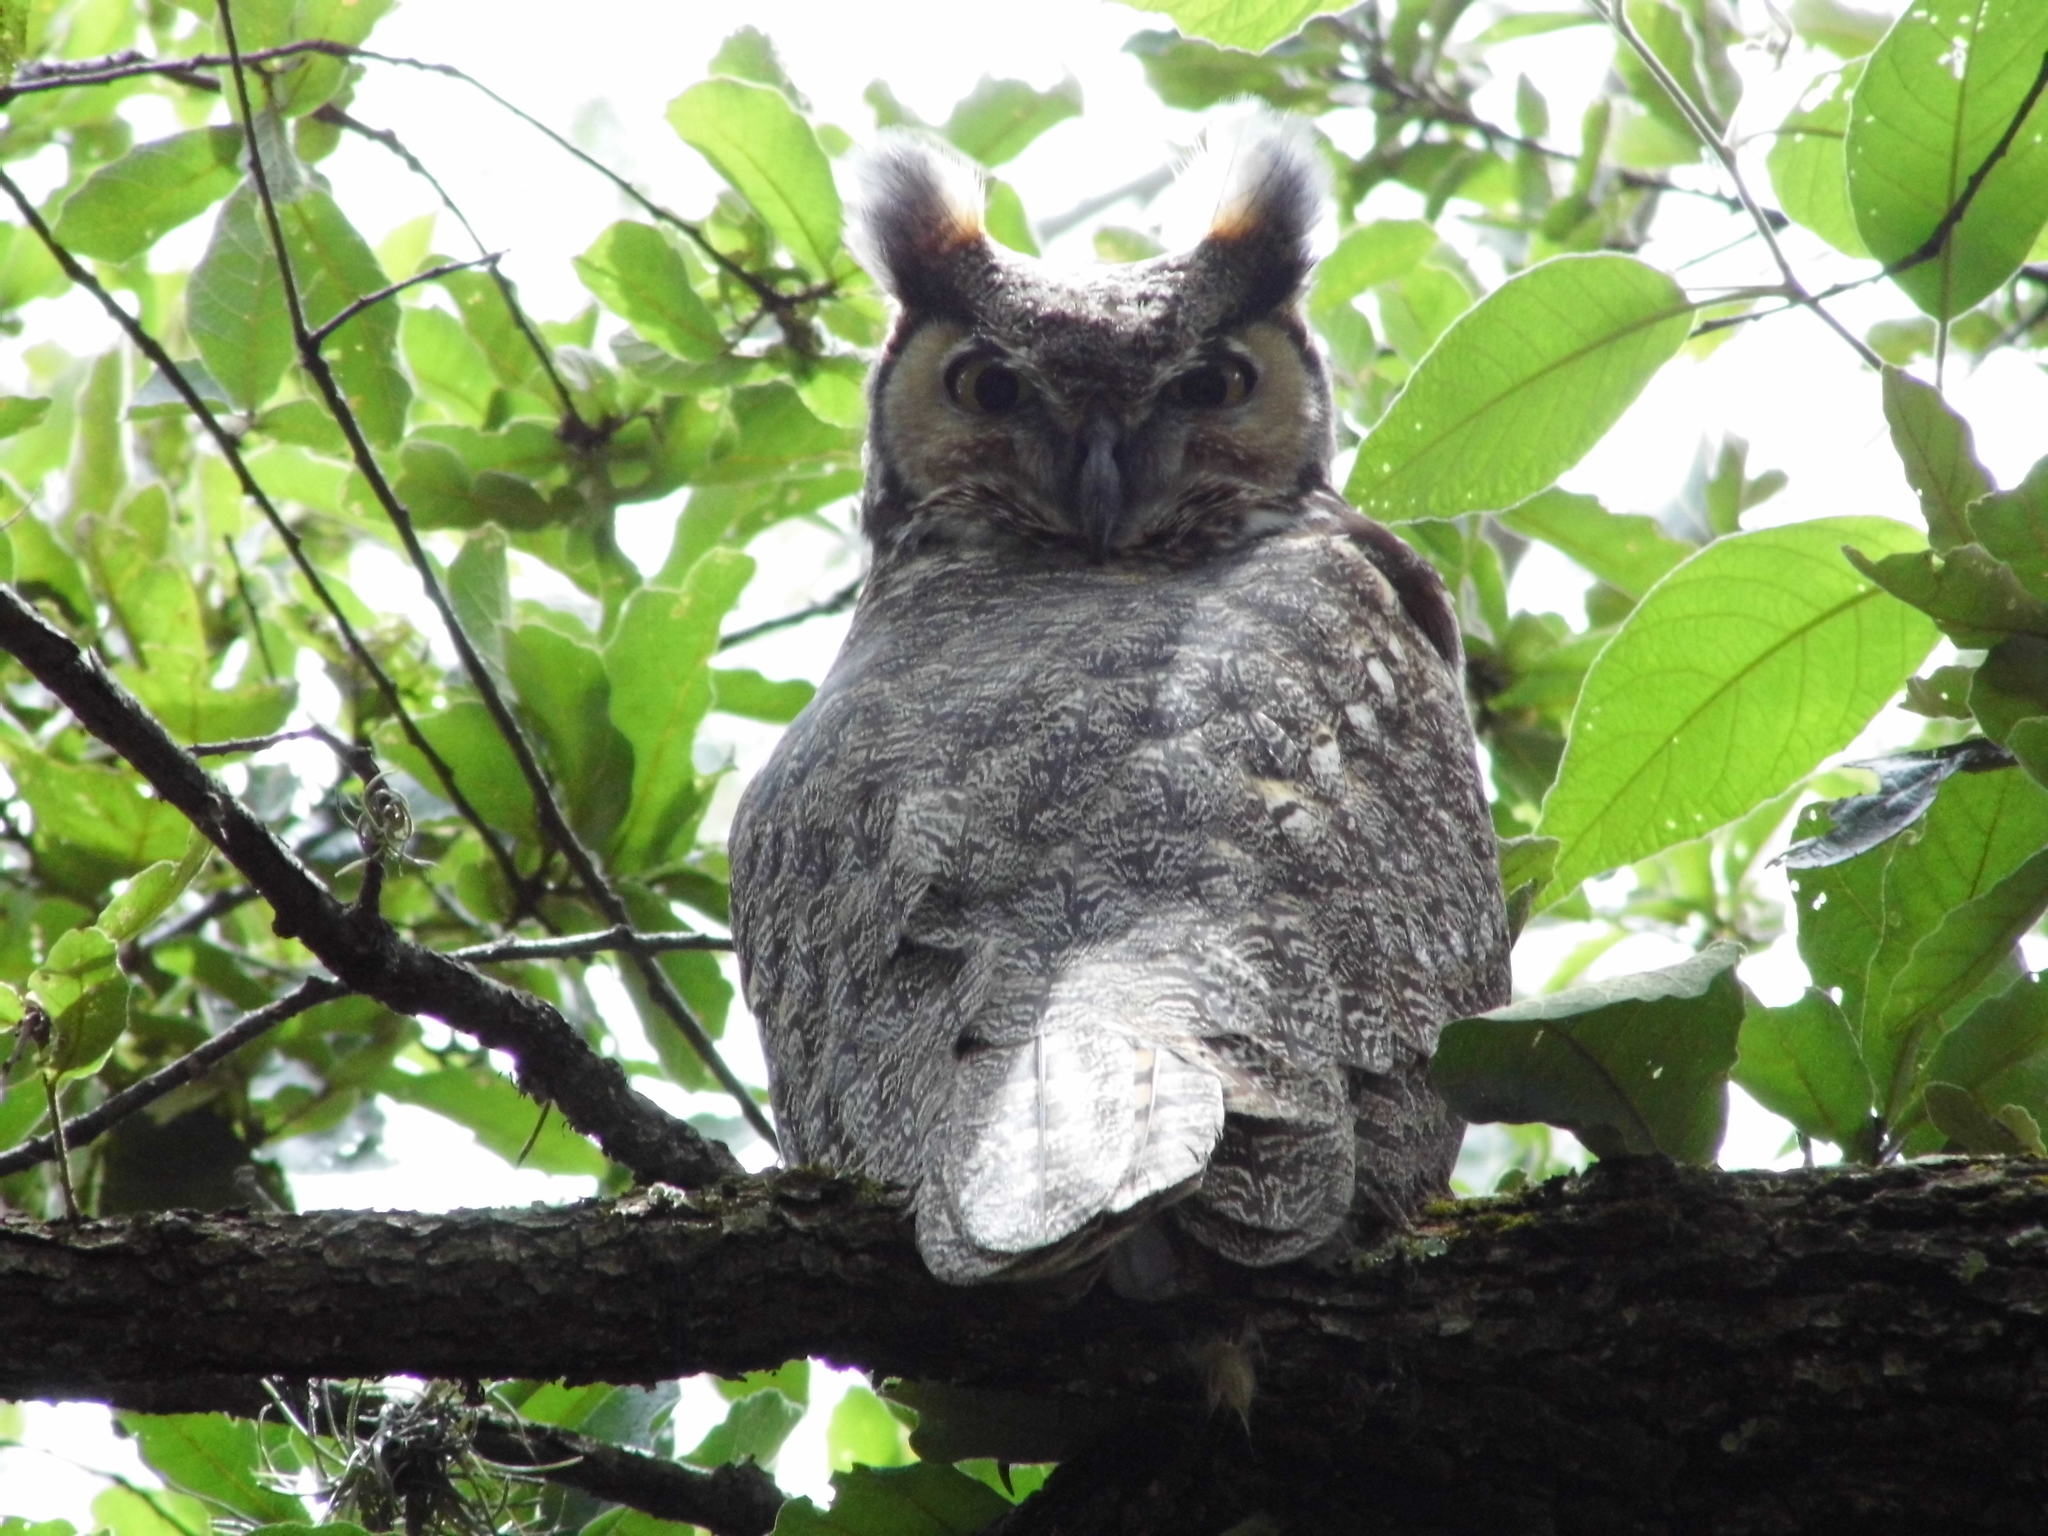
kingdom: Animalia
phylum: Chordata
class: Aves
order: Strigiformes
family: Strigidae
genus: Bubo
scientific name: Bubo virginianus
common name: Great horned owl
